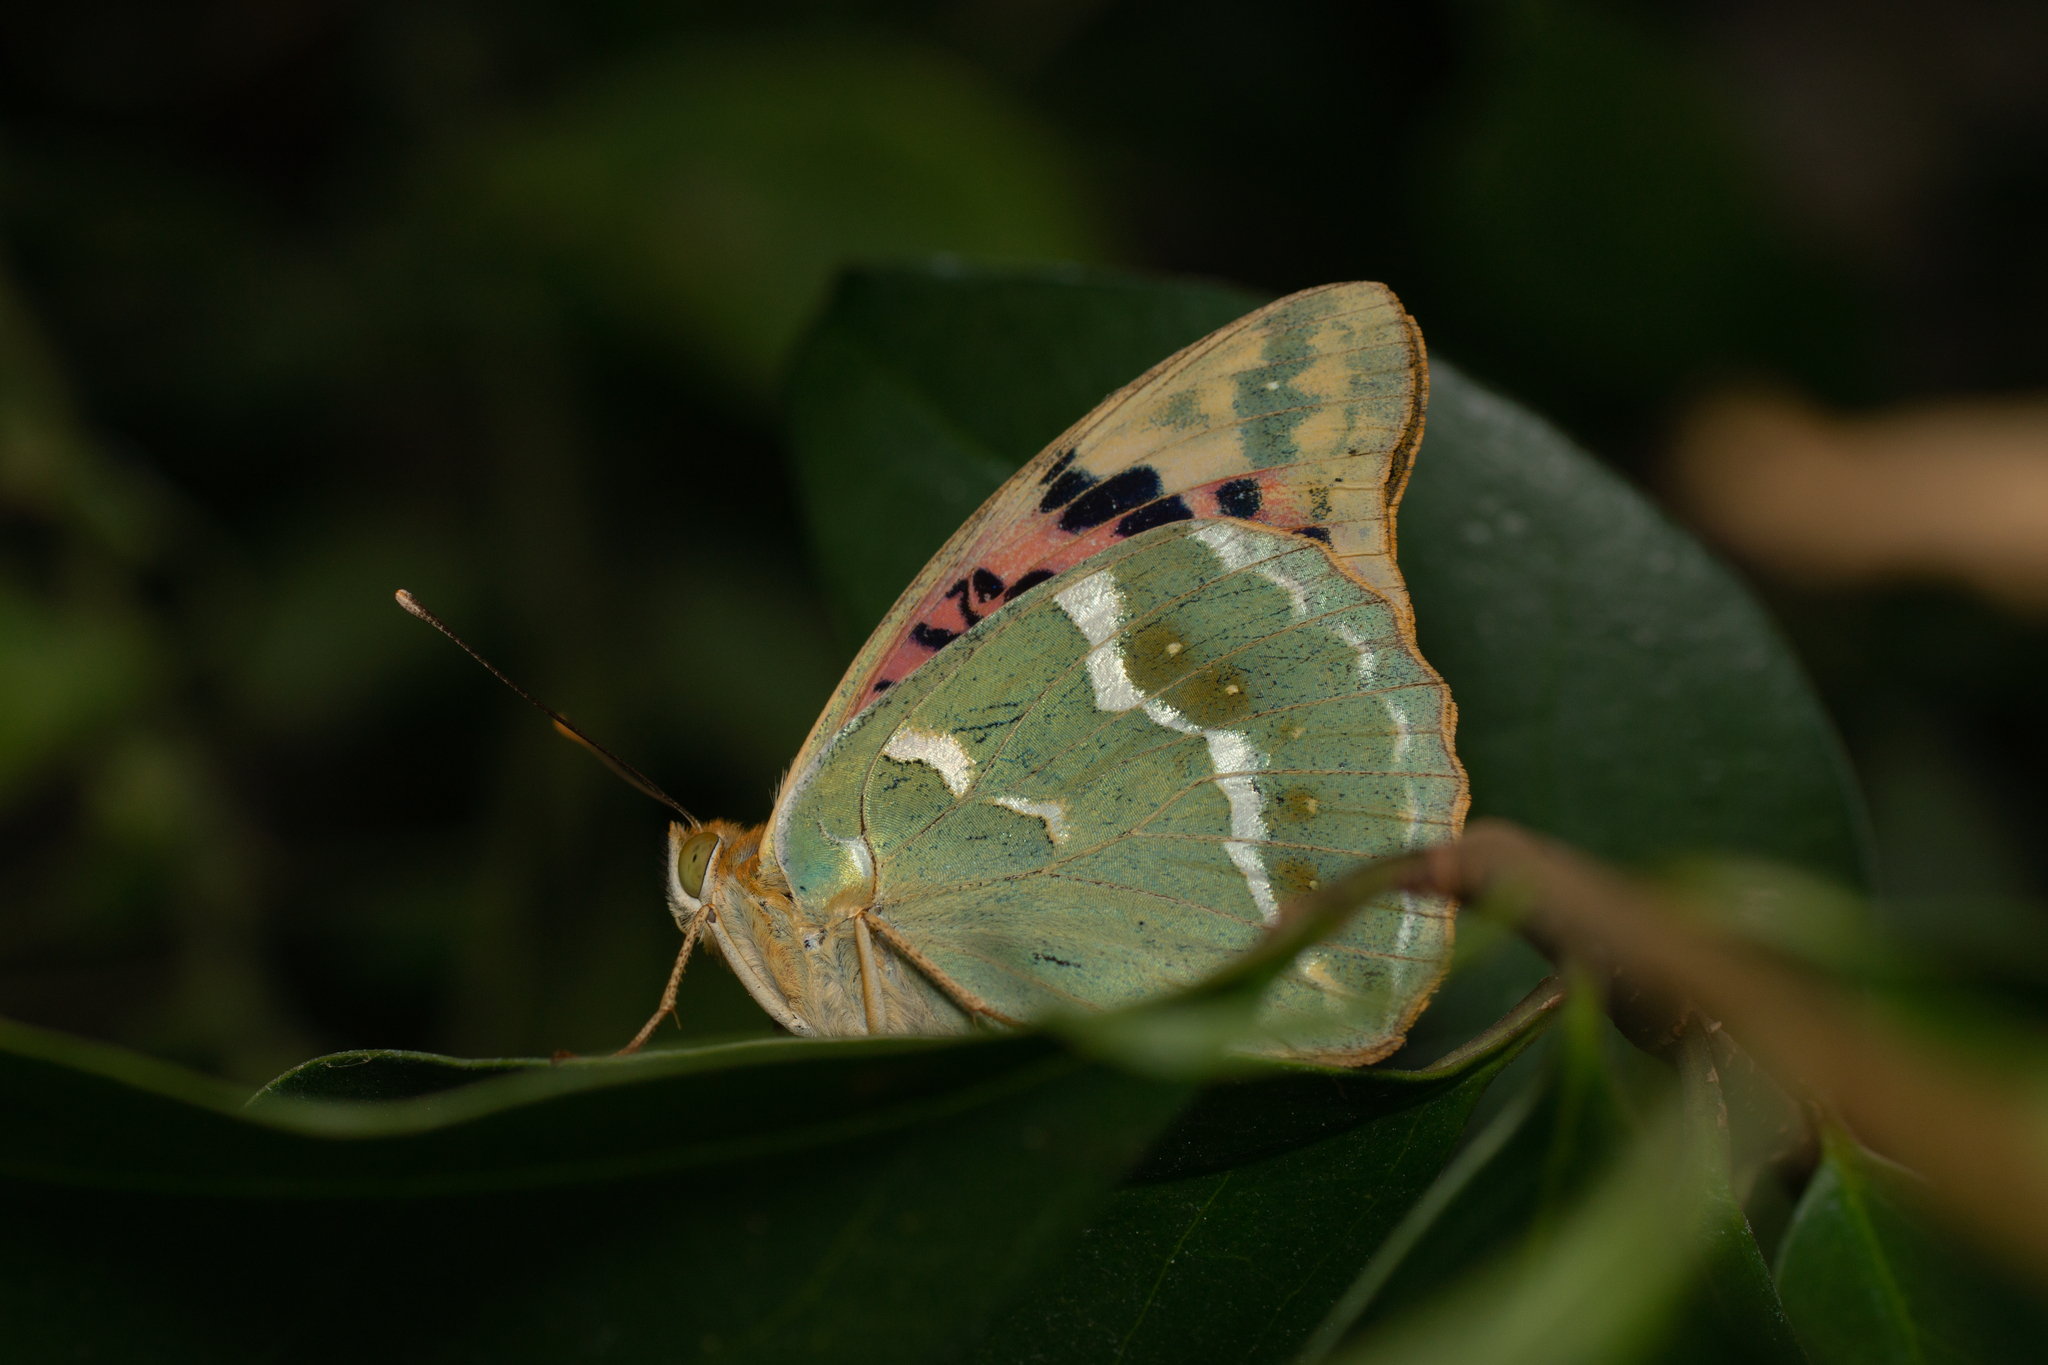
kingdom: Animalia
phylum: Arthropoda
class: Insecta
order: Lepidoptera
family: Nymphalidae
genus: Damora
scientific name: Damora pandora
